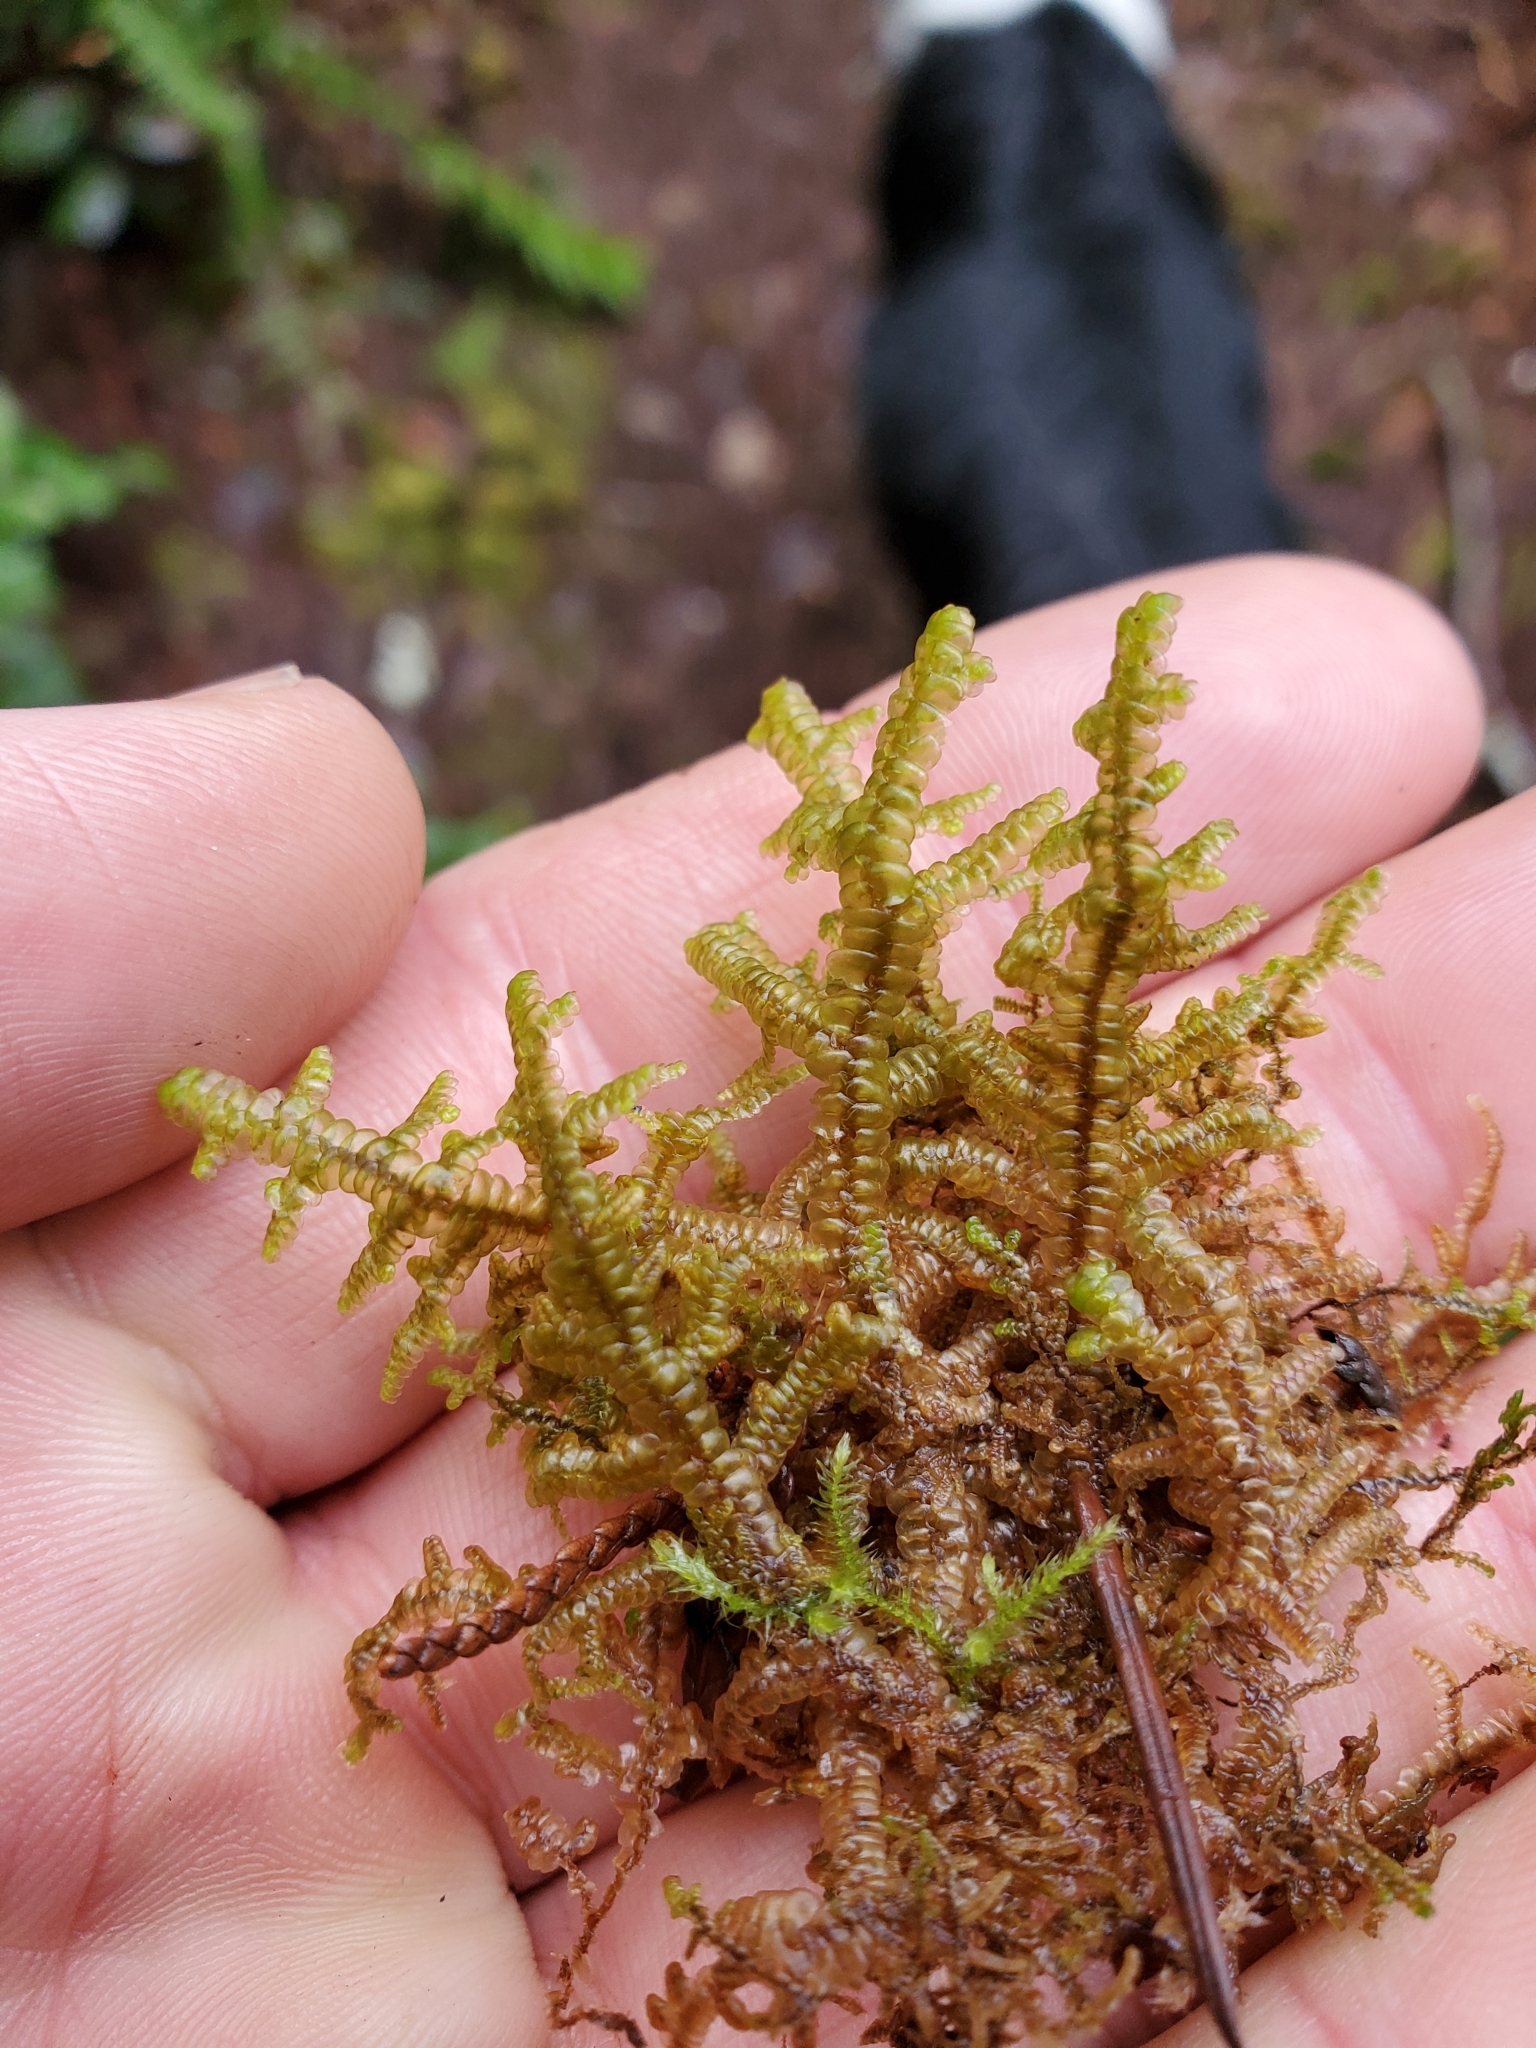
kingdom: Plantae
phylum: Marchantiophyta
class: Jungermanniopsida
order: Porellales
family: Porellaceae
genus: Porella
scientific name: Porella navicularis
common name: Tree ruffle liverwort
